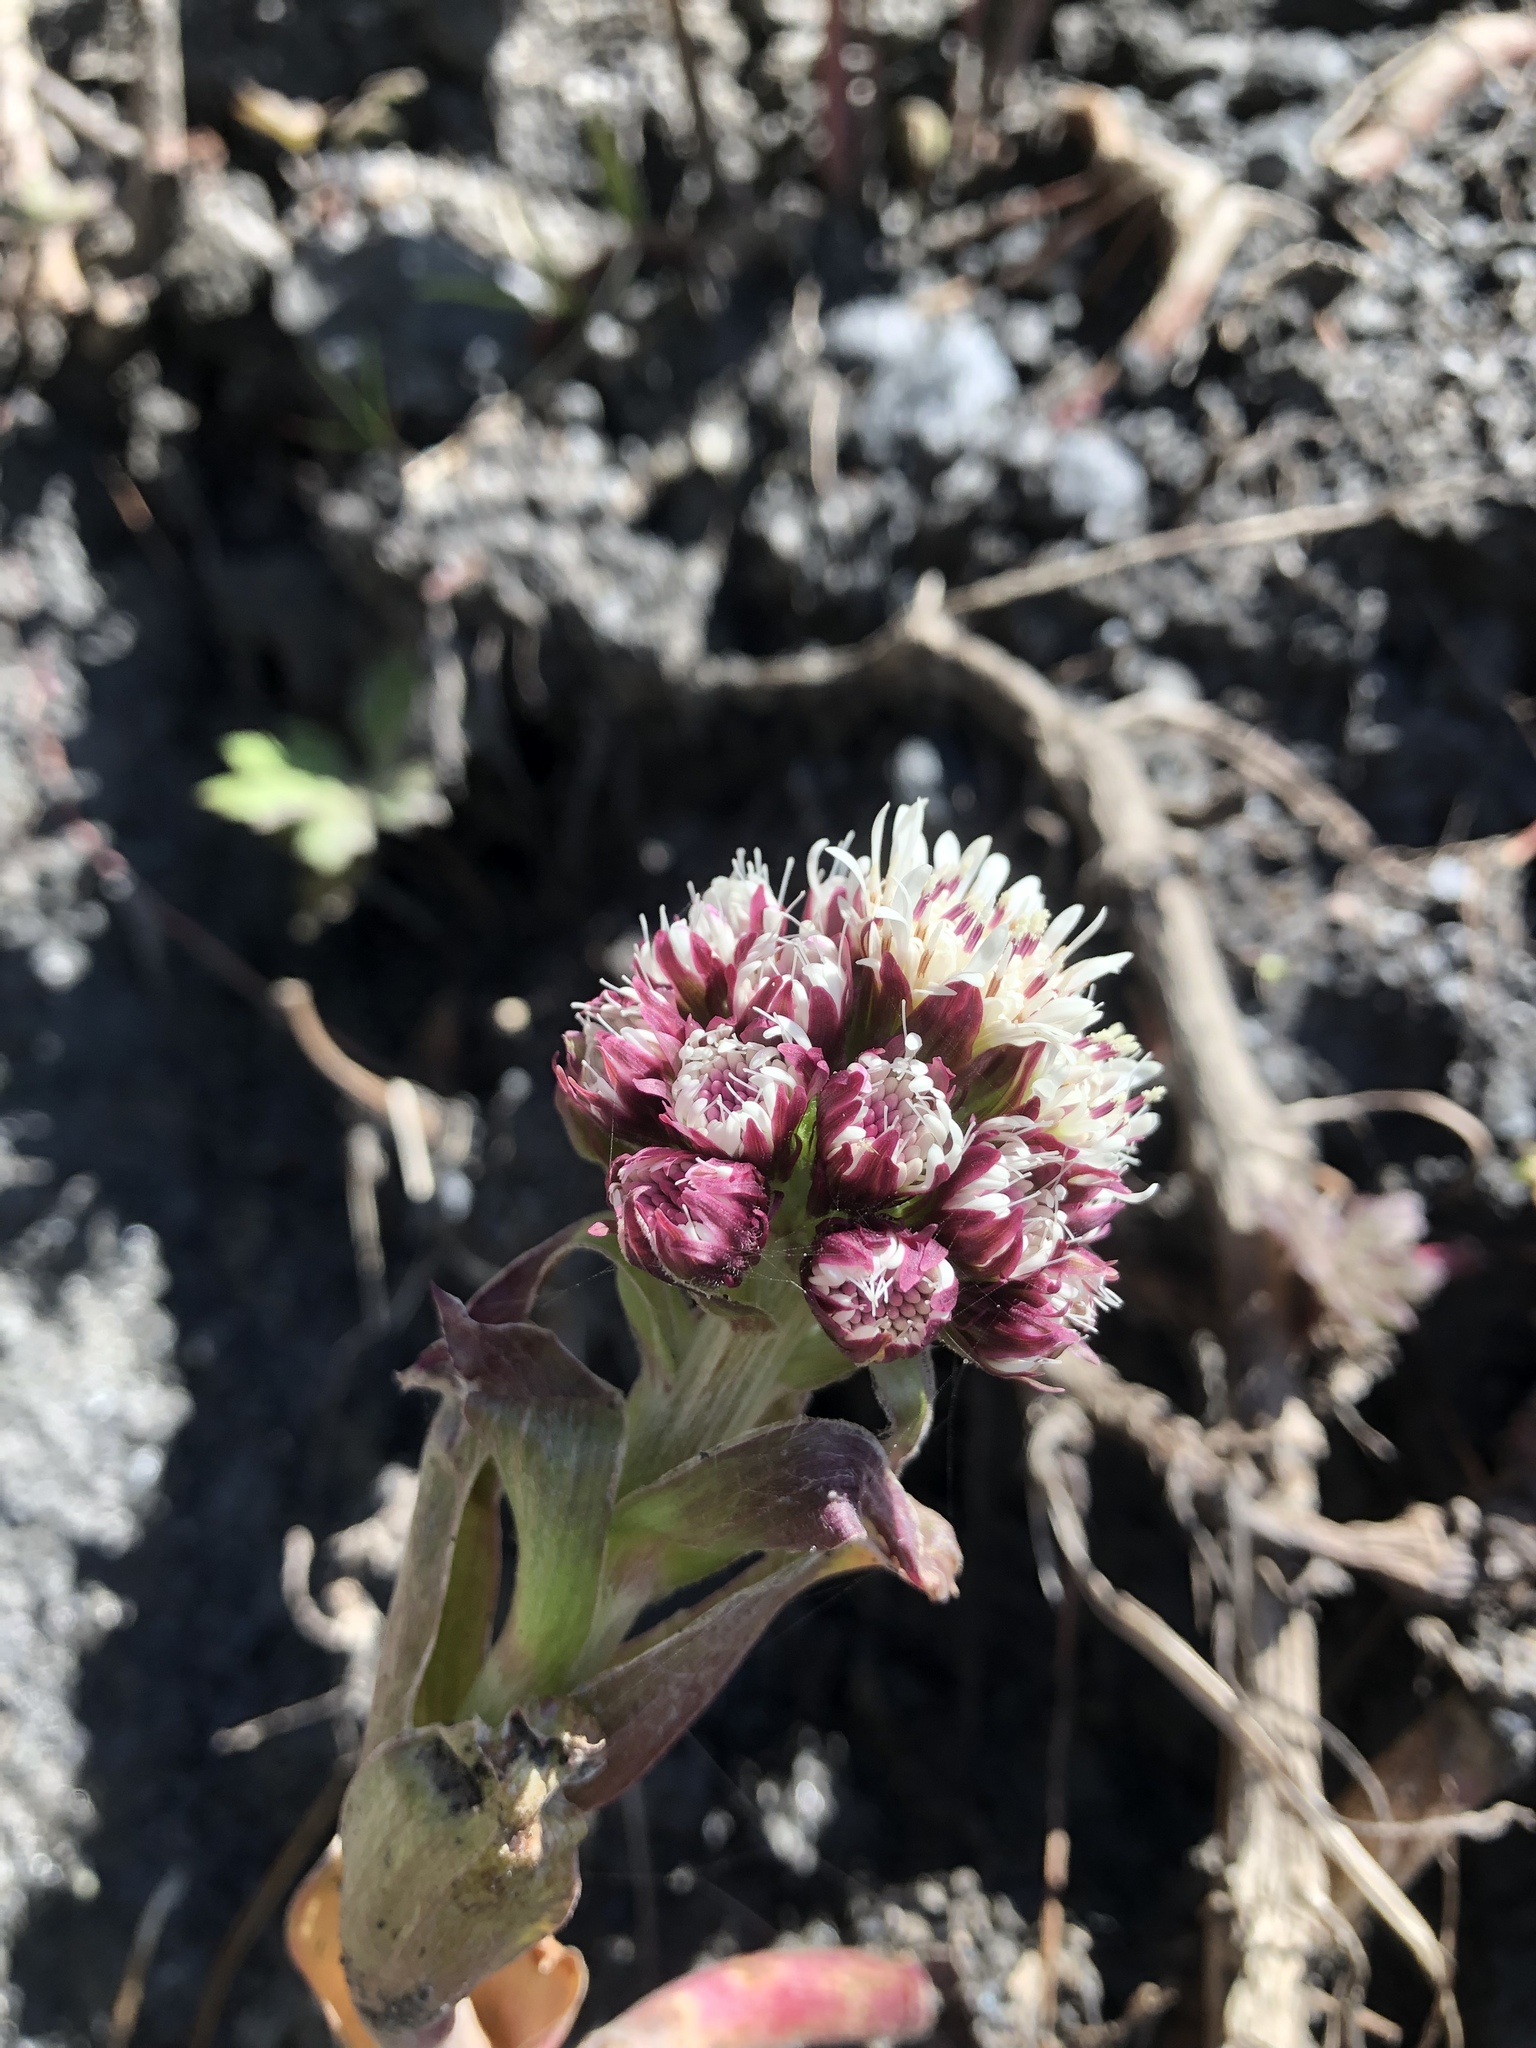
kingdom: Plantae
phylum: Tracheophyta
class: Magnoliopsida
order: Asterales
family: Asteraceae
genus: Petasites
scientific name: Petasites frigidus
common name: Arctic butterbur
